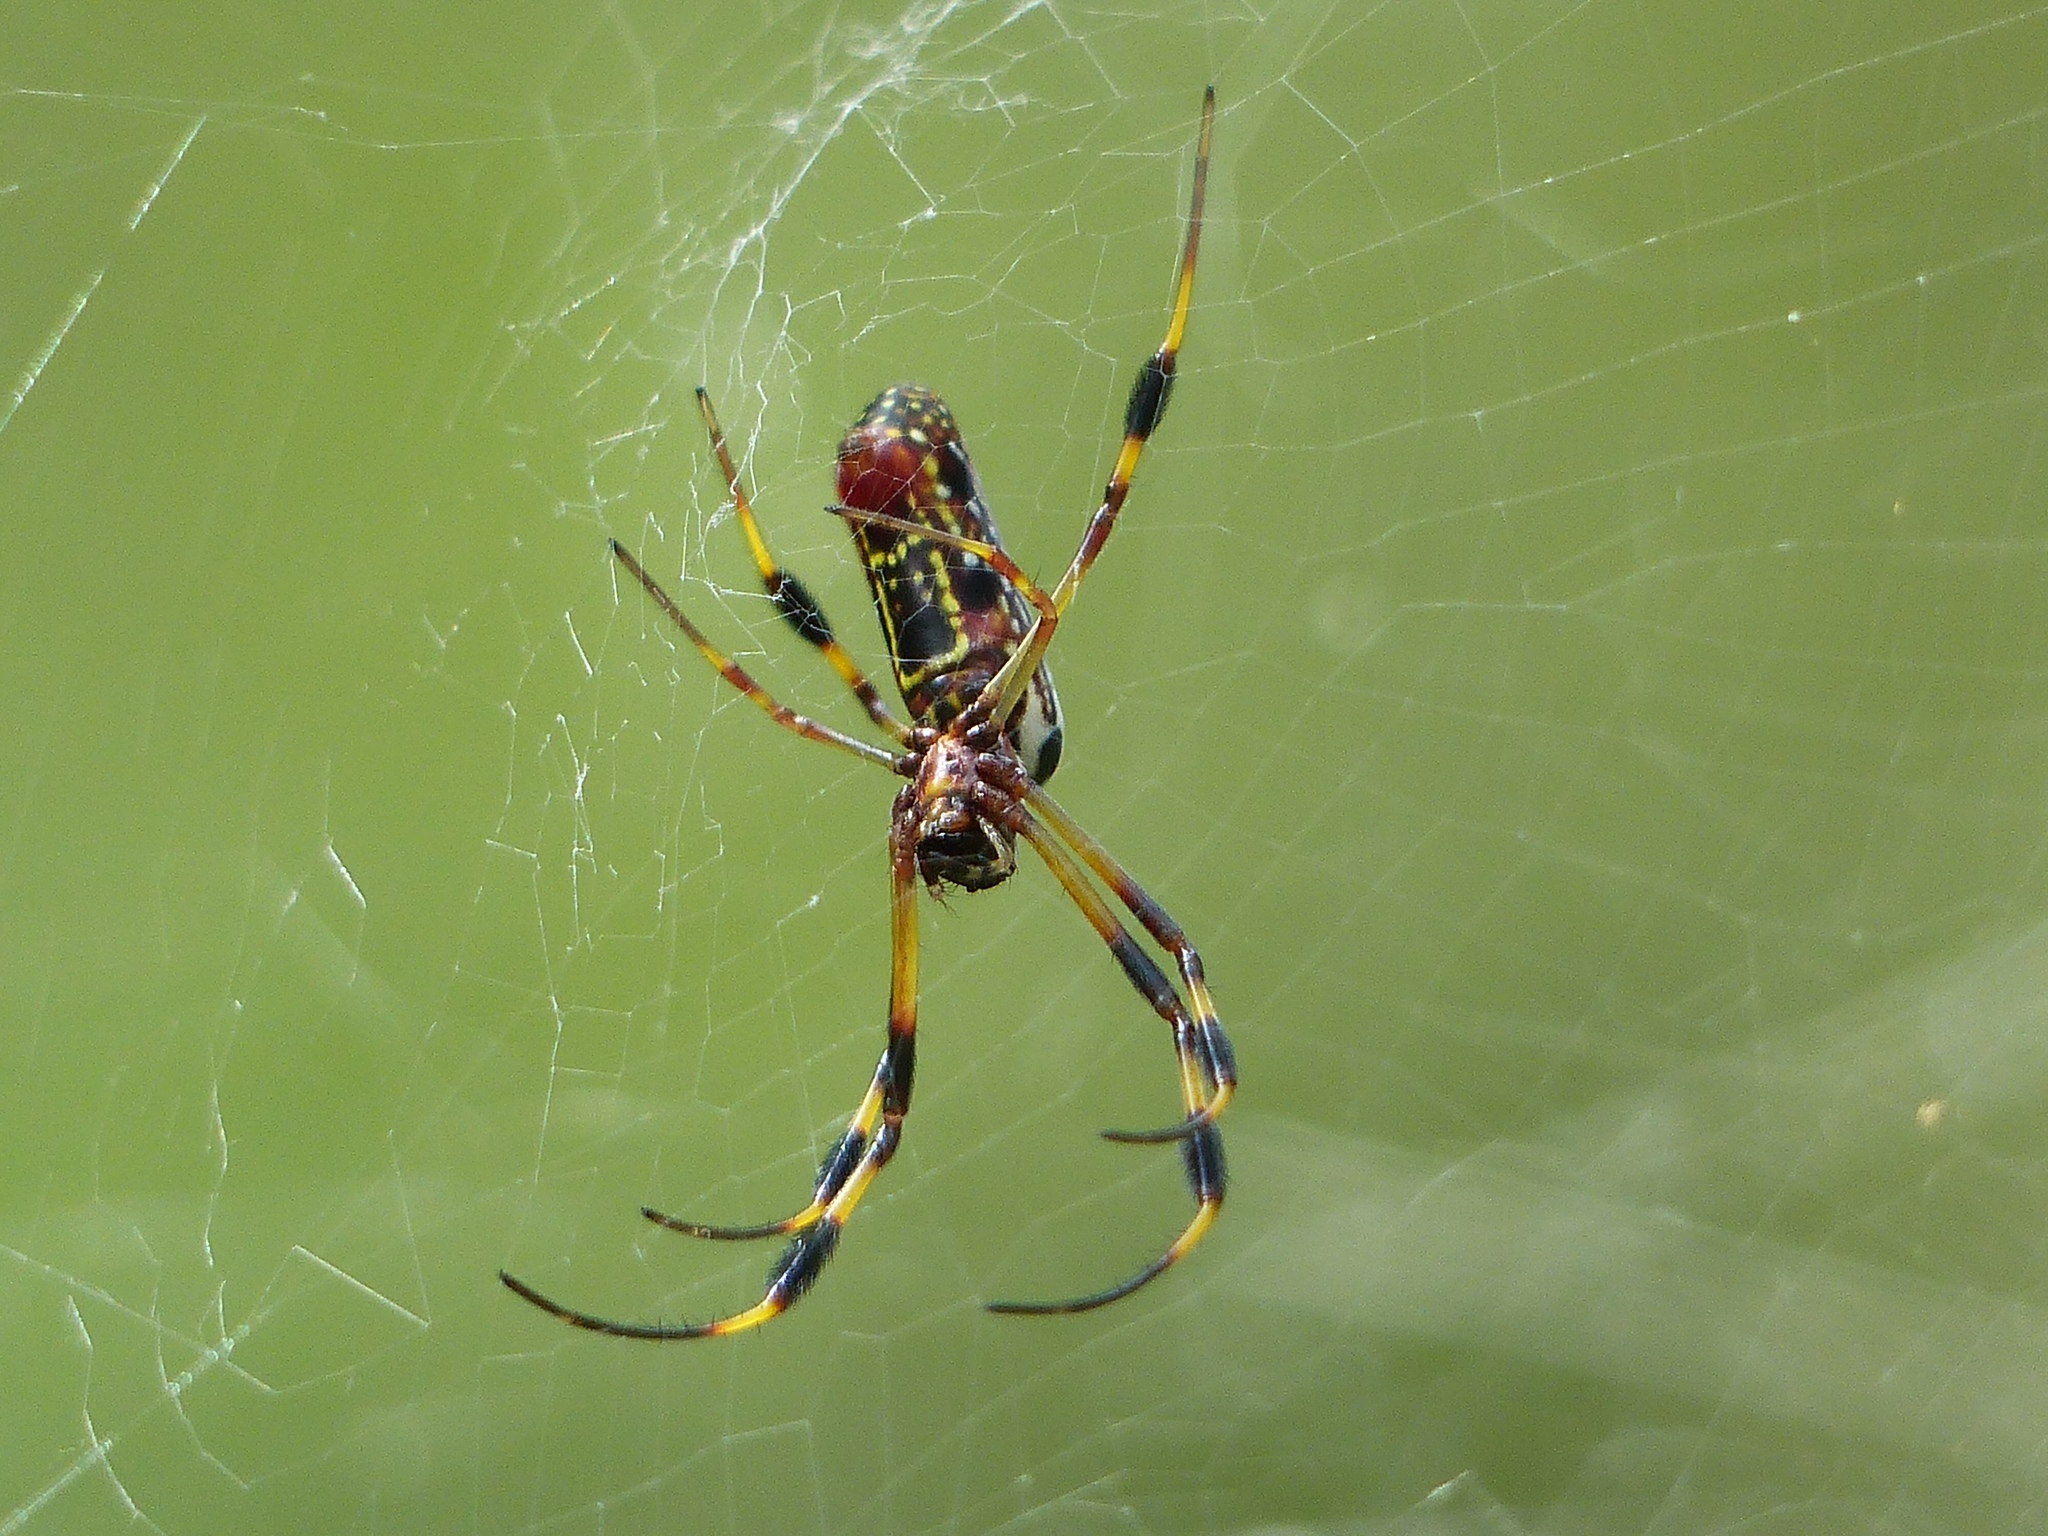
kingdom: Animalia
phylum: Arthropoda
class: Arachnida
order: Araneae
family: Araneidae
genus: Trichonephila
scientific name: Trichonephila clavipes
